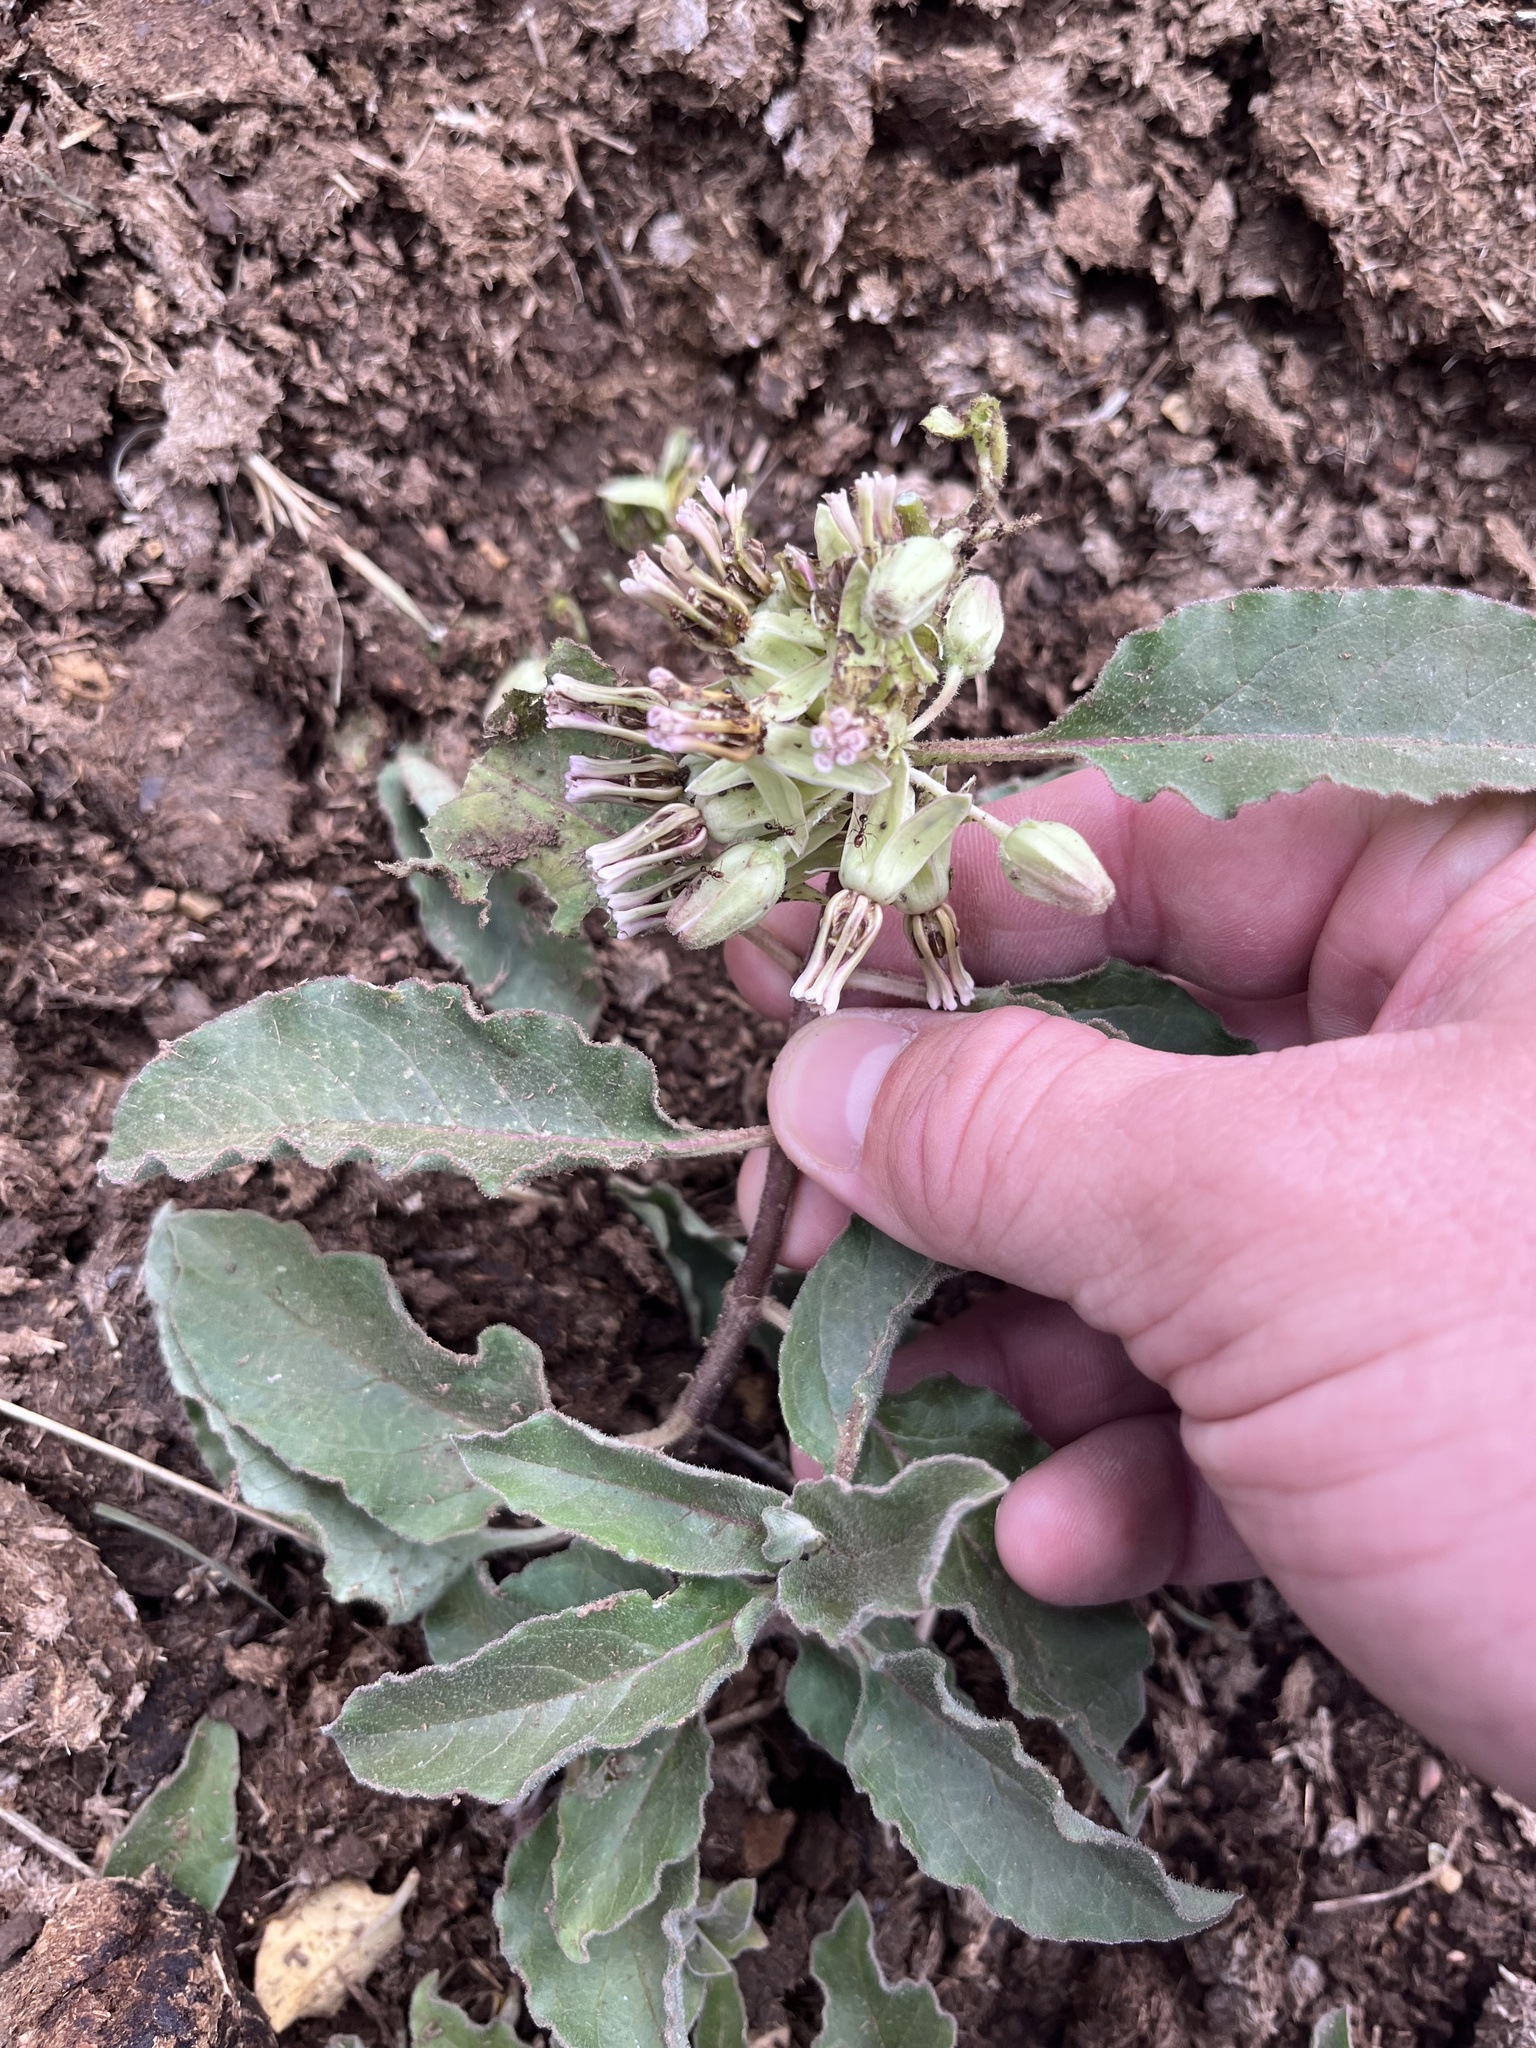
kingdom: Plantae
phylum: Tracheophyta
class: Magnoliopsida
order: Gentianales
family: Apocynaceae
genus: Asclepias
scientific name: Asclepias oenotheroides
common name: Zizotes milkweed
